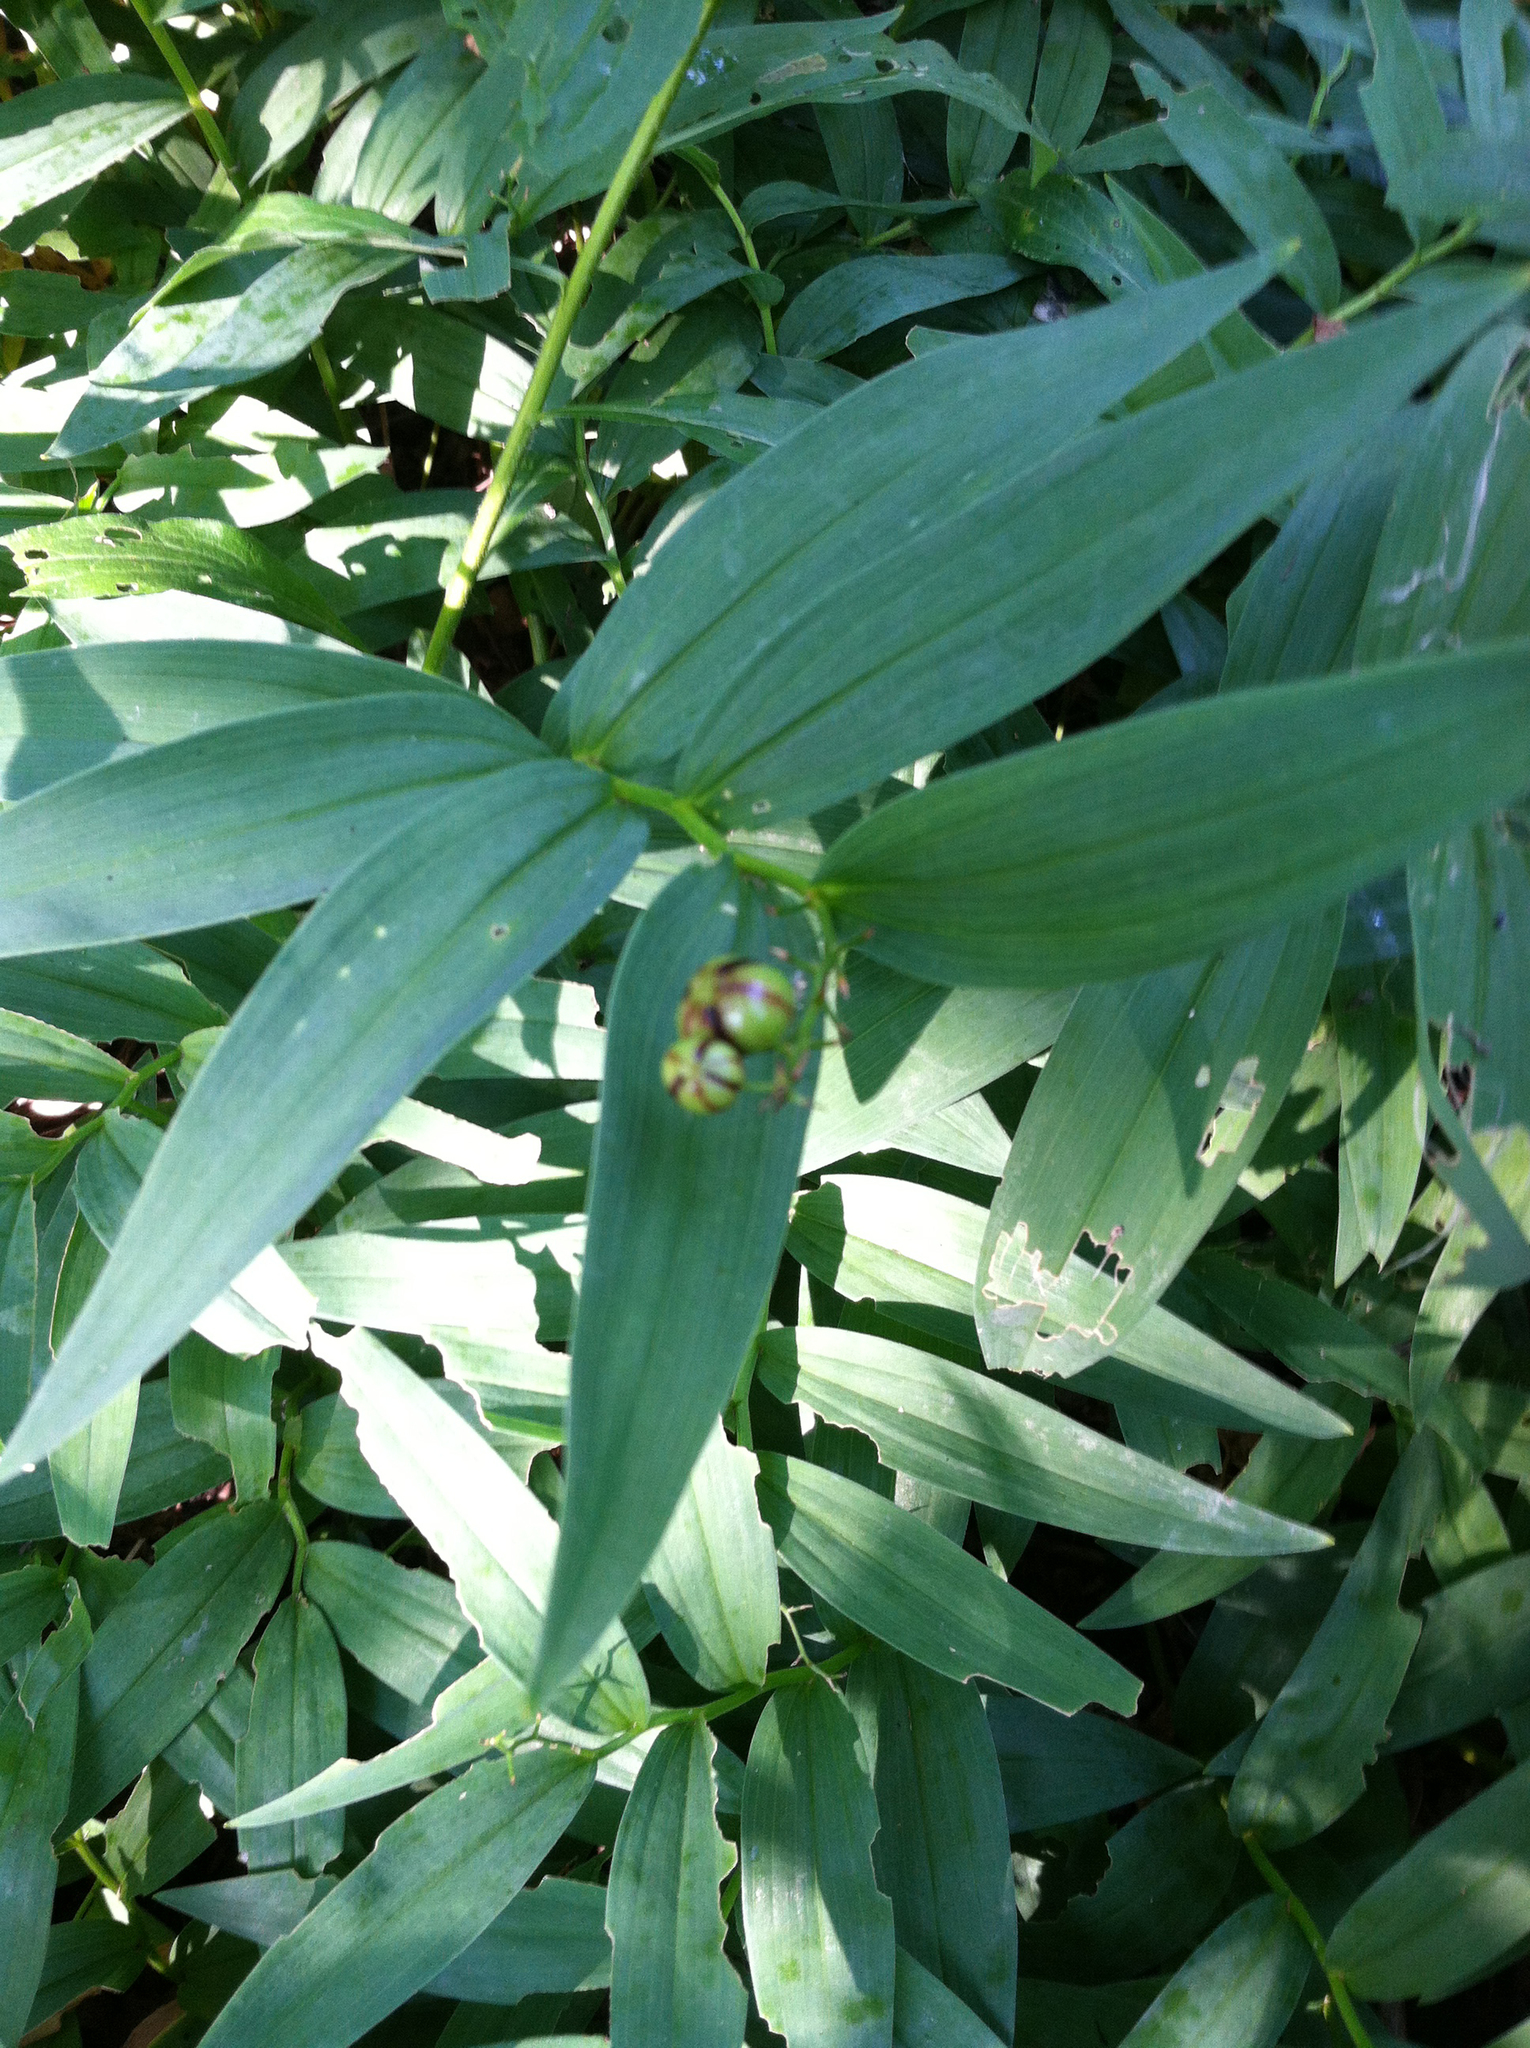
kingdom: Plantae
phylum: Tracheophyta
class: Liliopsida
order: Asparagales
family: Asparagaceae
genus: Maianthemum
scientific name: Maianthemum stellatum
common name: Little false solomon's seal
